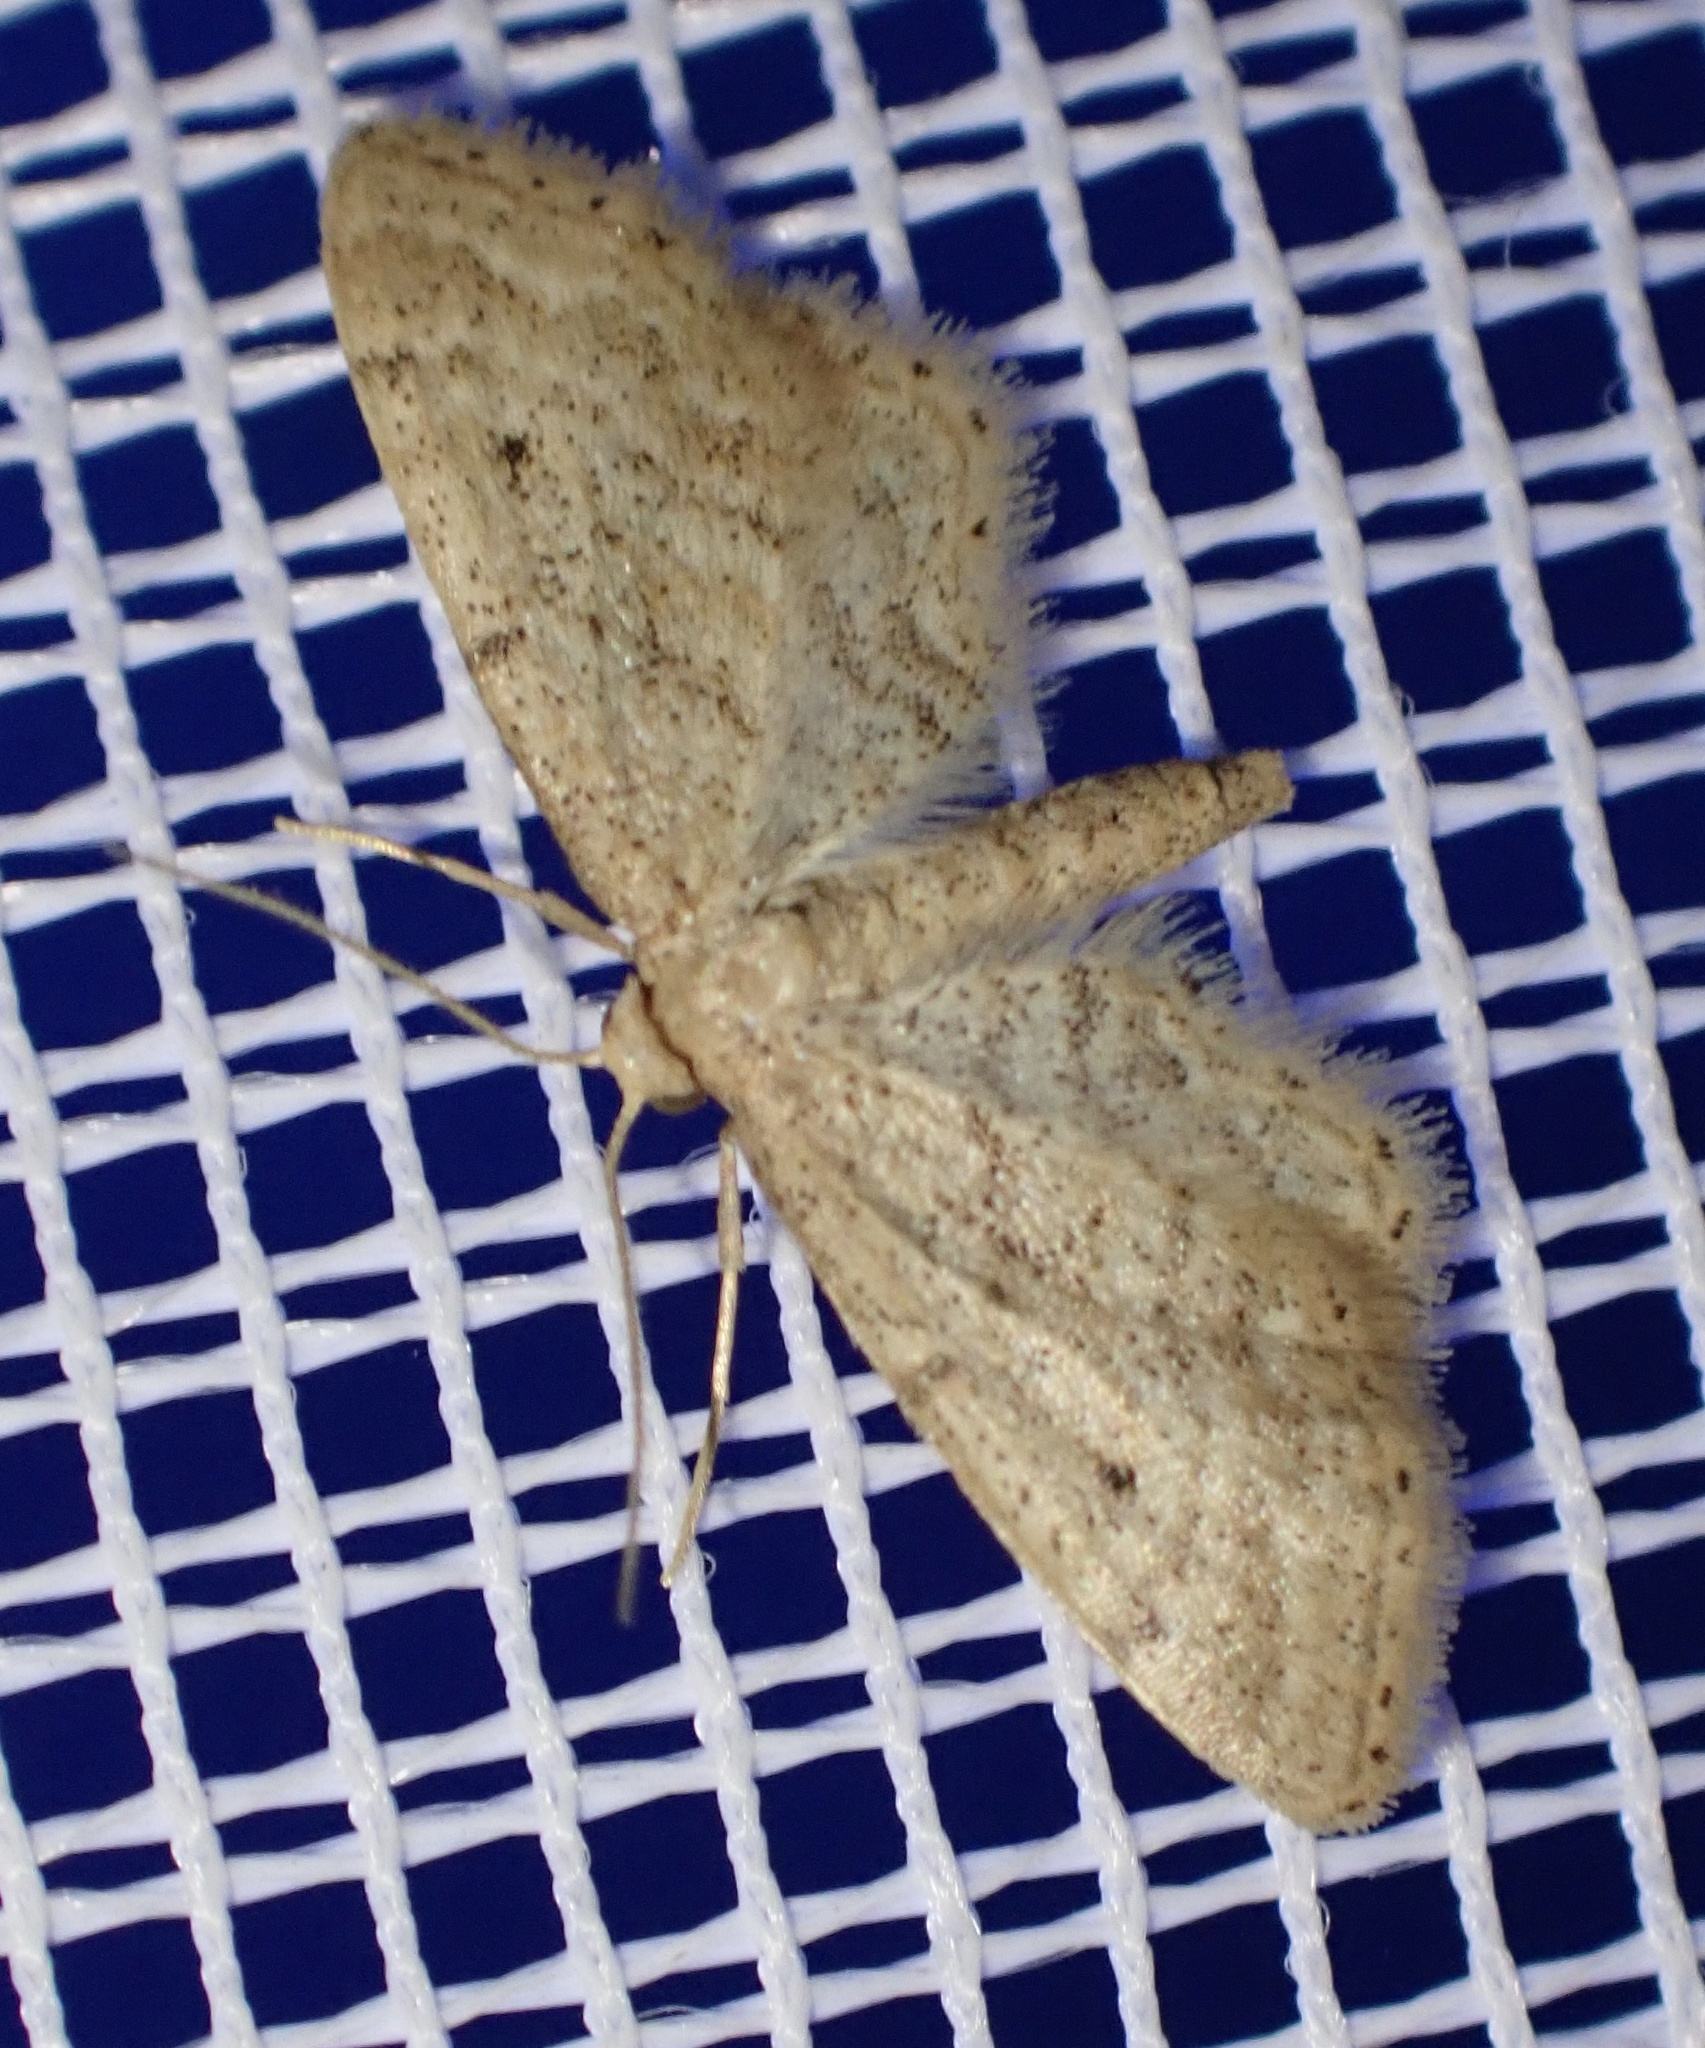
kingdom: Animalia
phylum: Arthropoda
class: Insecta
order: Lepidoptera
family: Geometridae
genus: Idaea
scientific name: Idaea fractilineata
